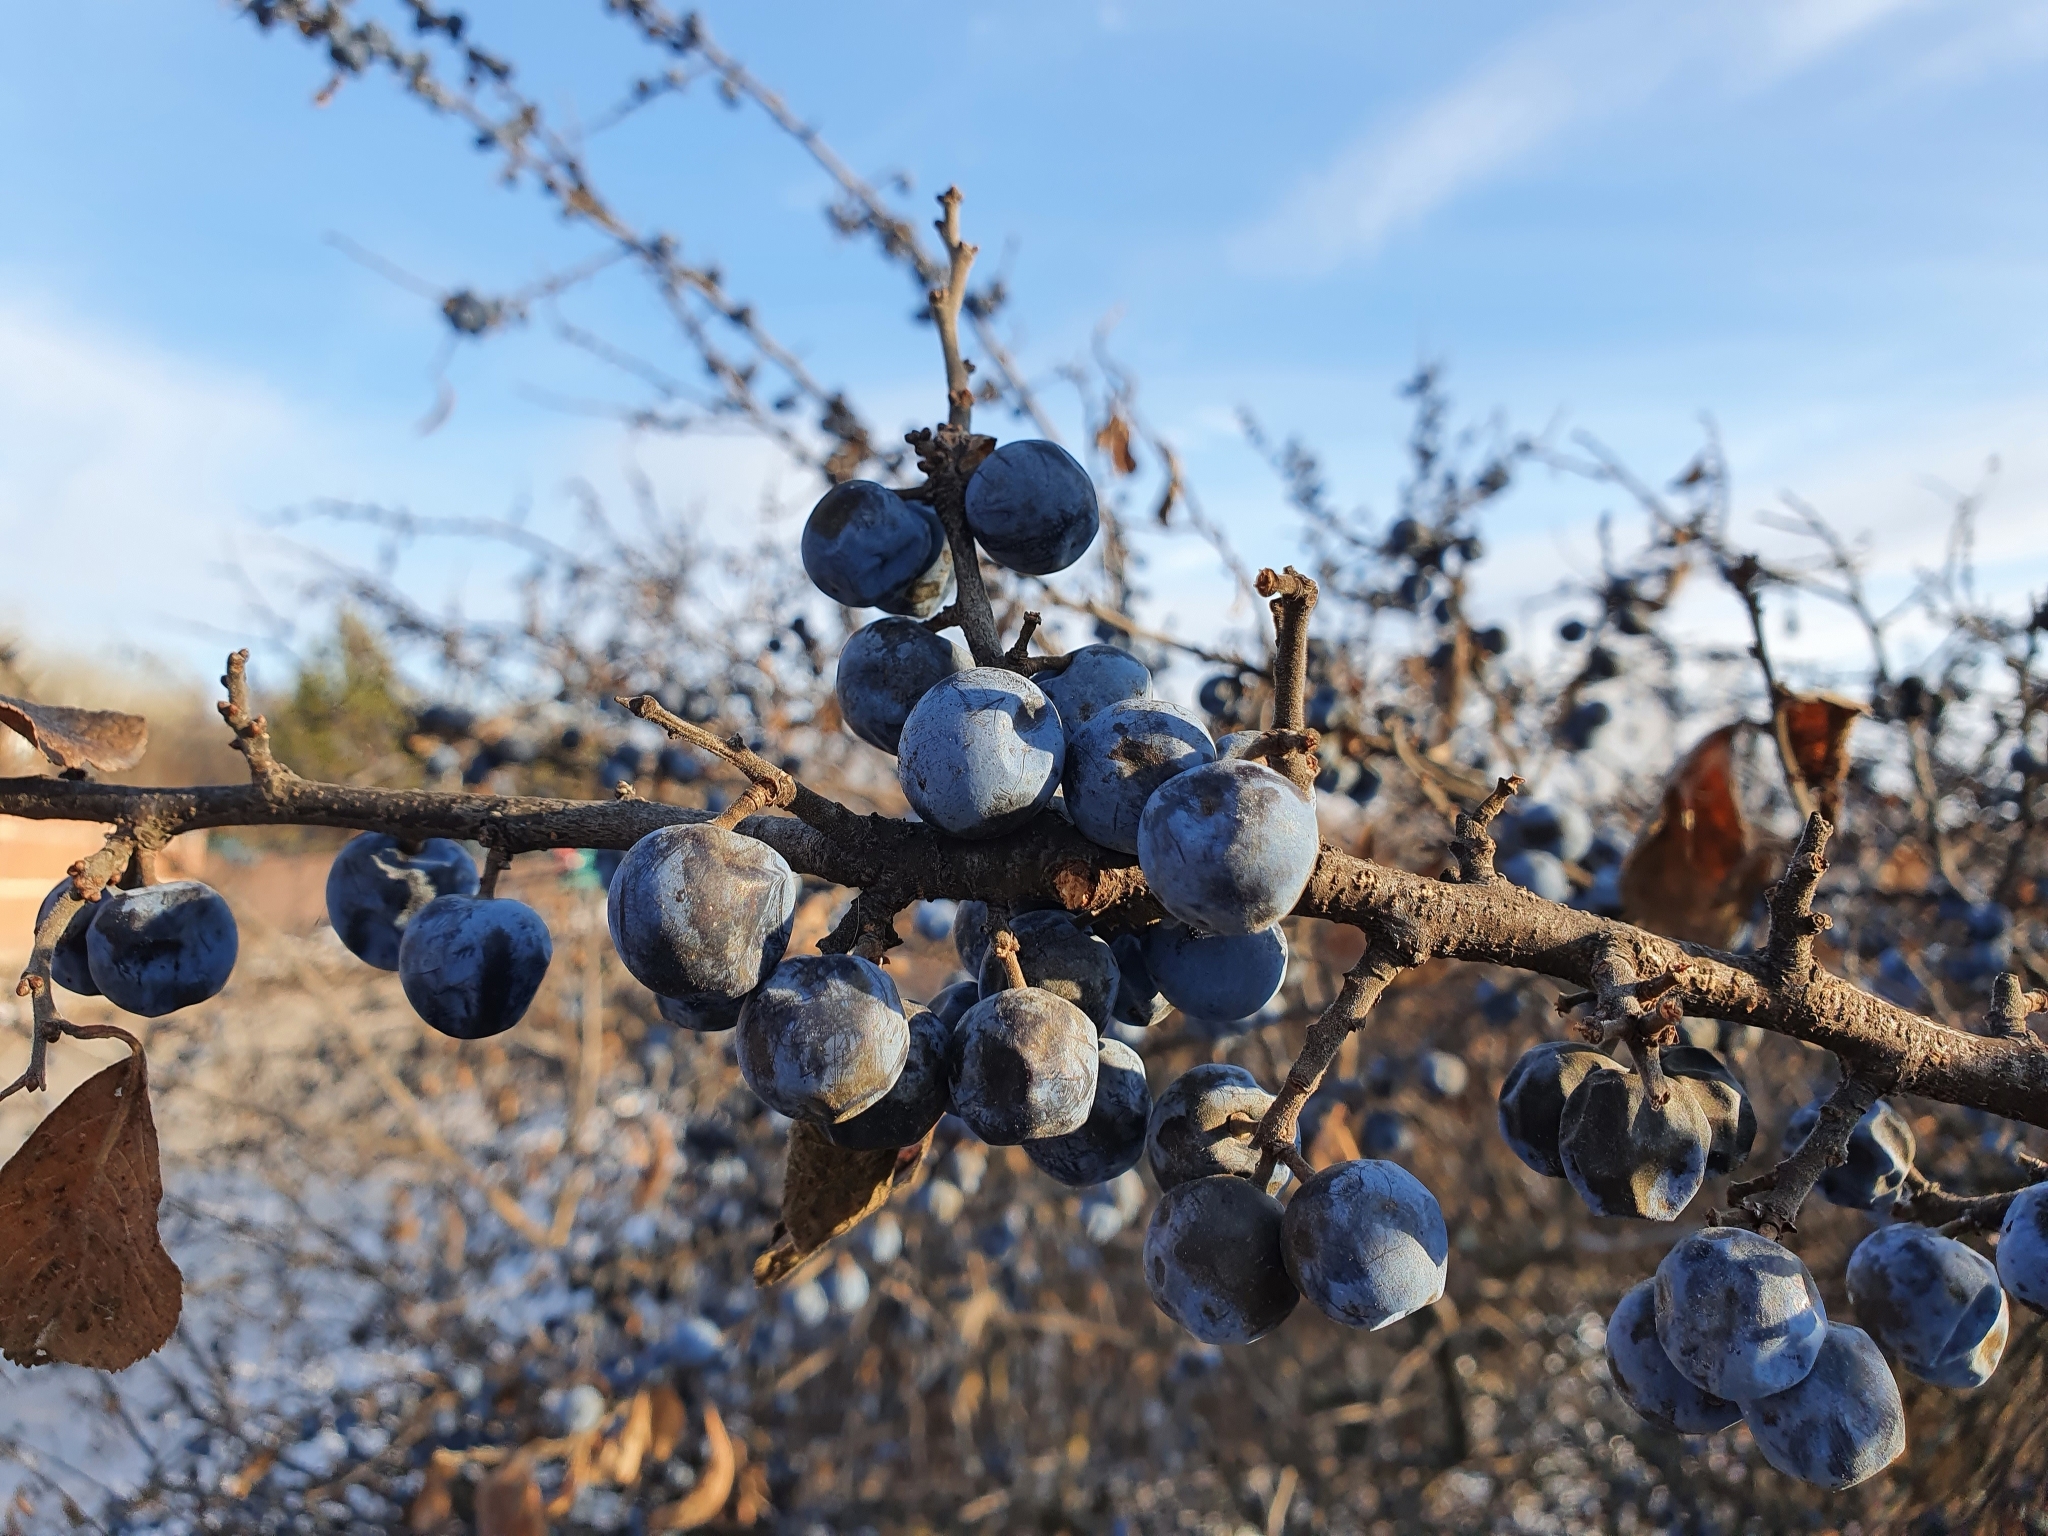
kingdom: Plantae
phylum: Tracheophyta
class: Magnoliopsida
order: Rosales
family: Rosaceae
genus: Prunus
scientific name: Prunus spinosa
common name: Blackthorn
